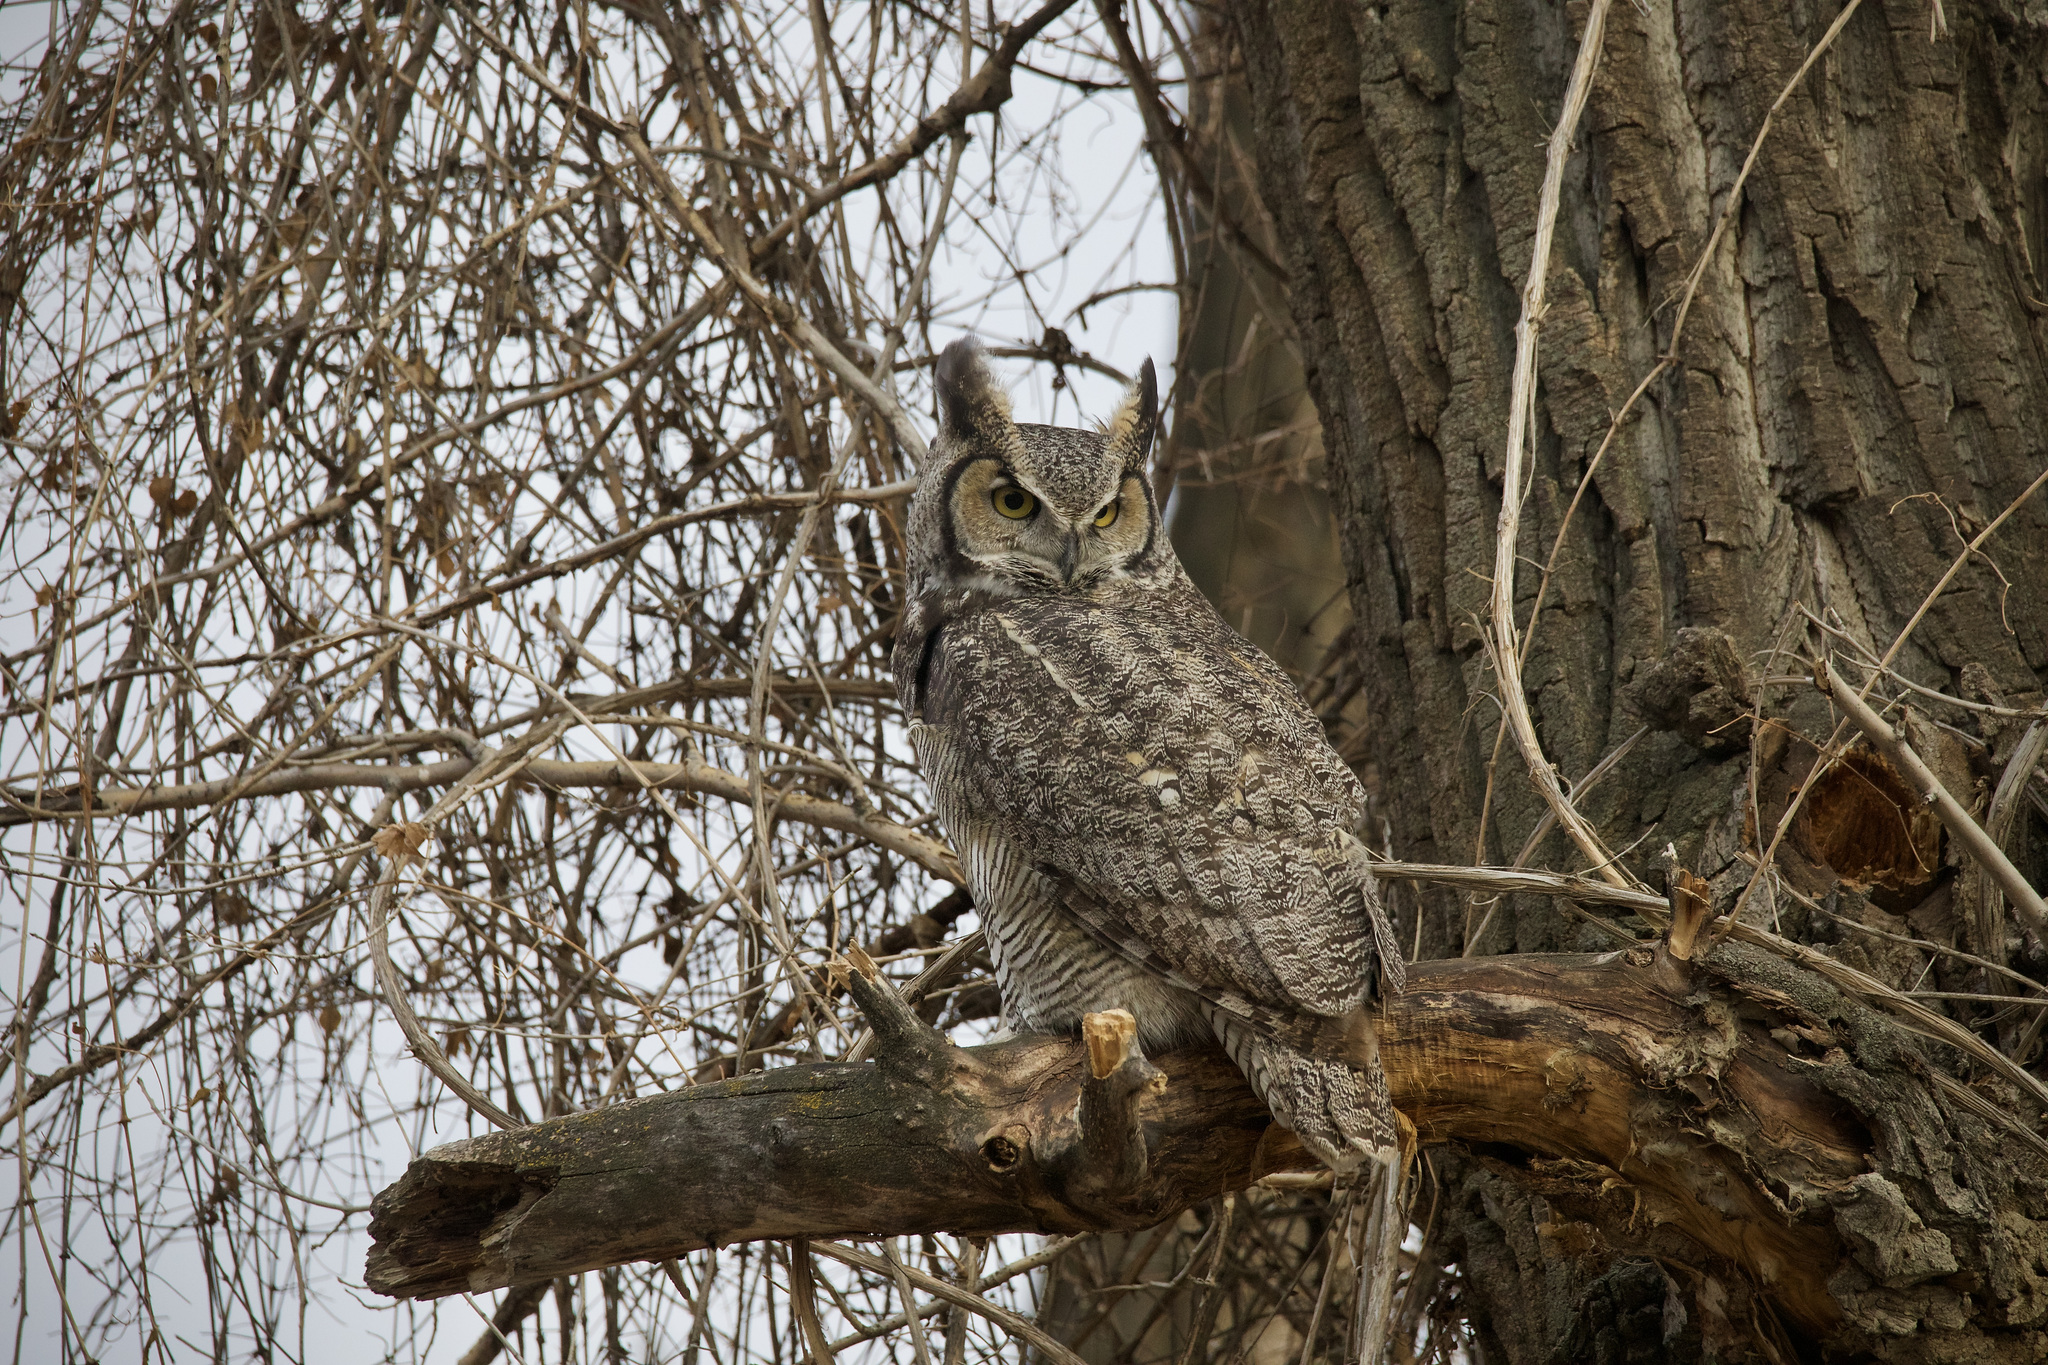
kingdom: Animalia
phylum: Chordata
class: Aves
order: Strigiformes
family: Strigidae
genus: Bubo
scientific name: Bubo virginianus
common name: Great horned owl
